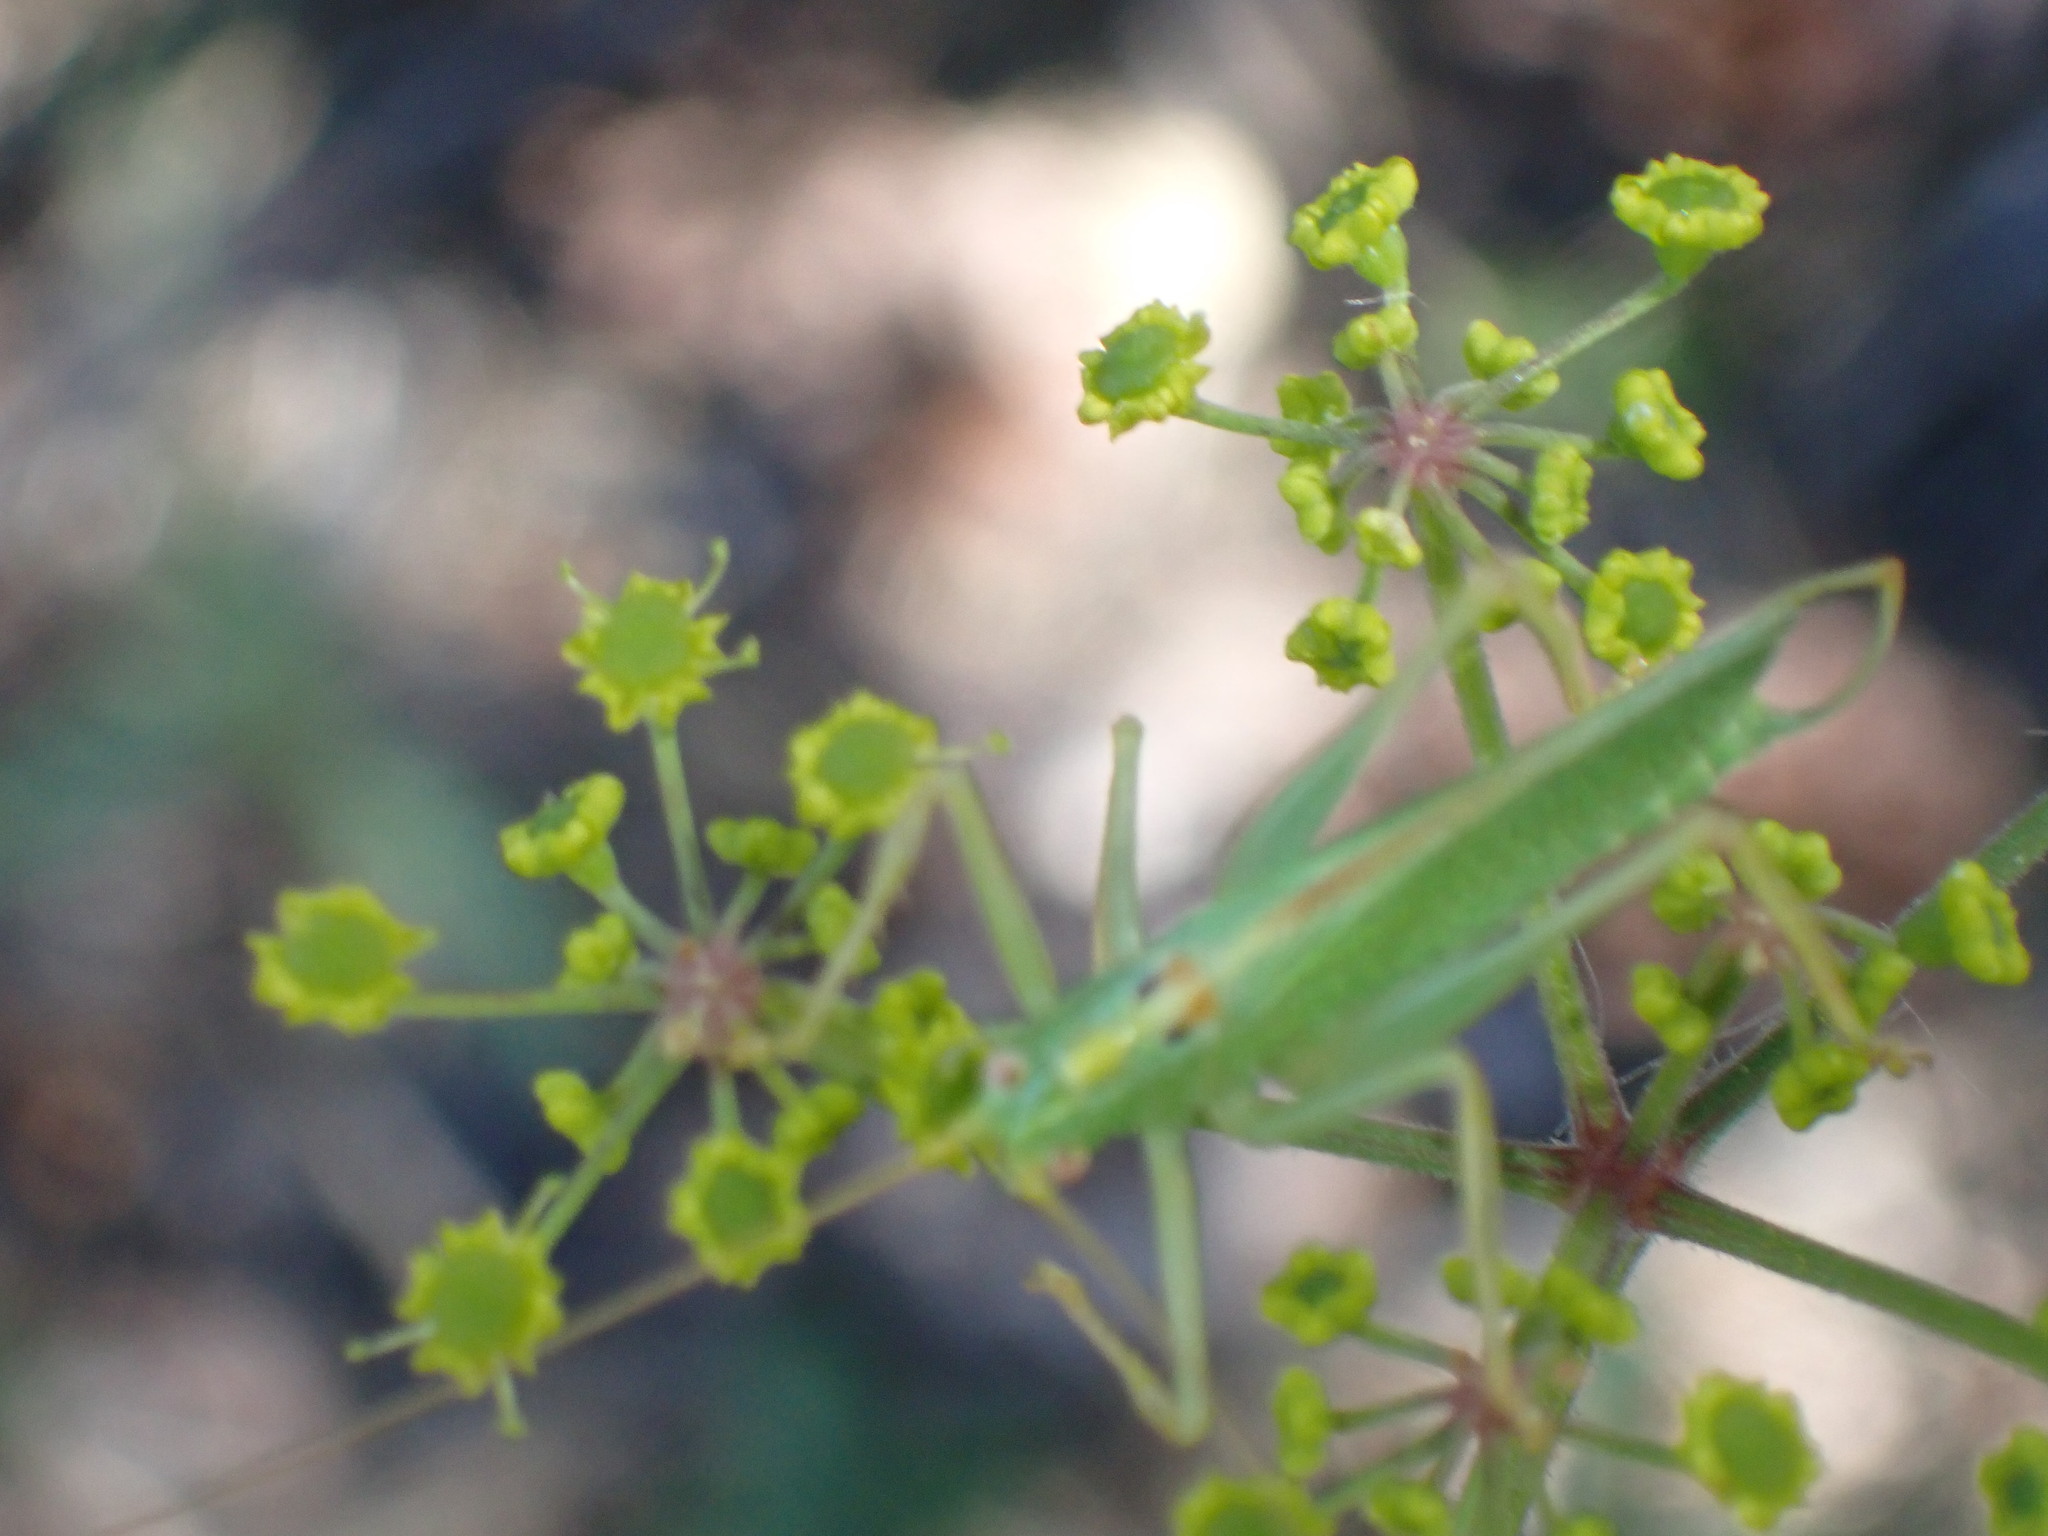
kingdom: Animalia
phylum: Arthropoda
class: Insecta
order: Orthoptera
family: Tettigoniidae
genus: Meconema
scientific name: Meconema thalassinum
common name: Oak bush-cricket
